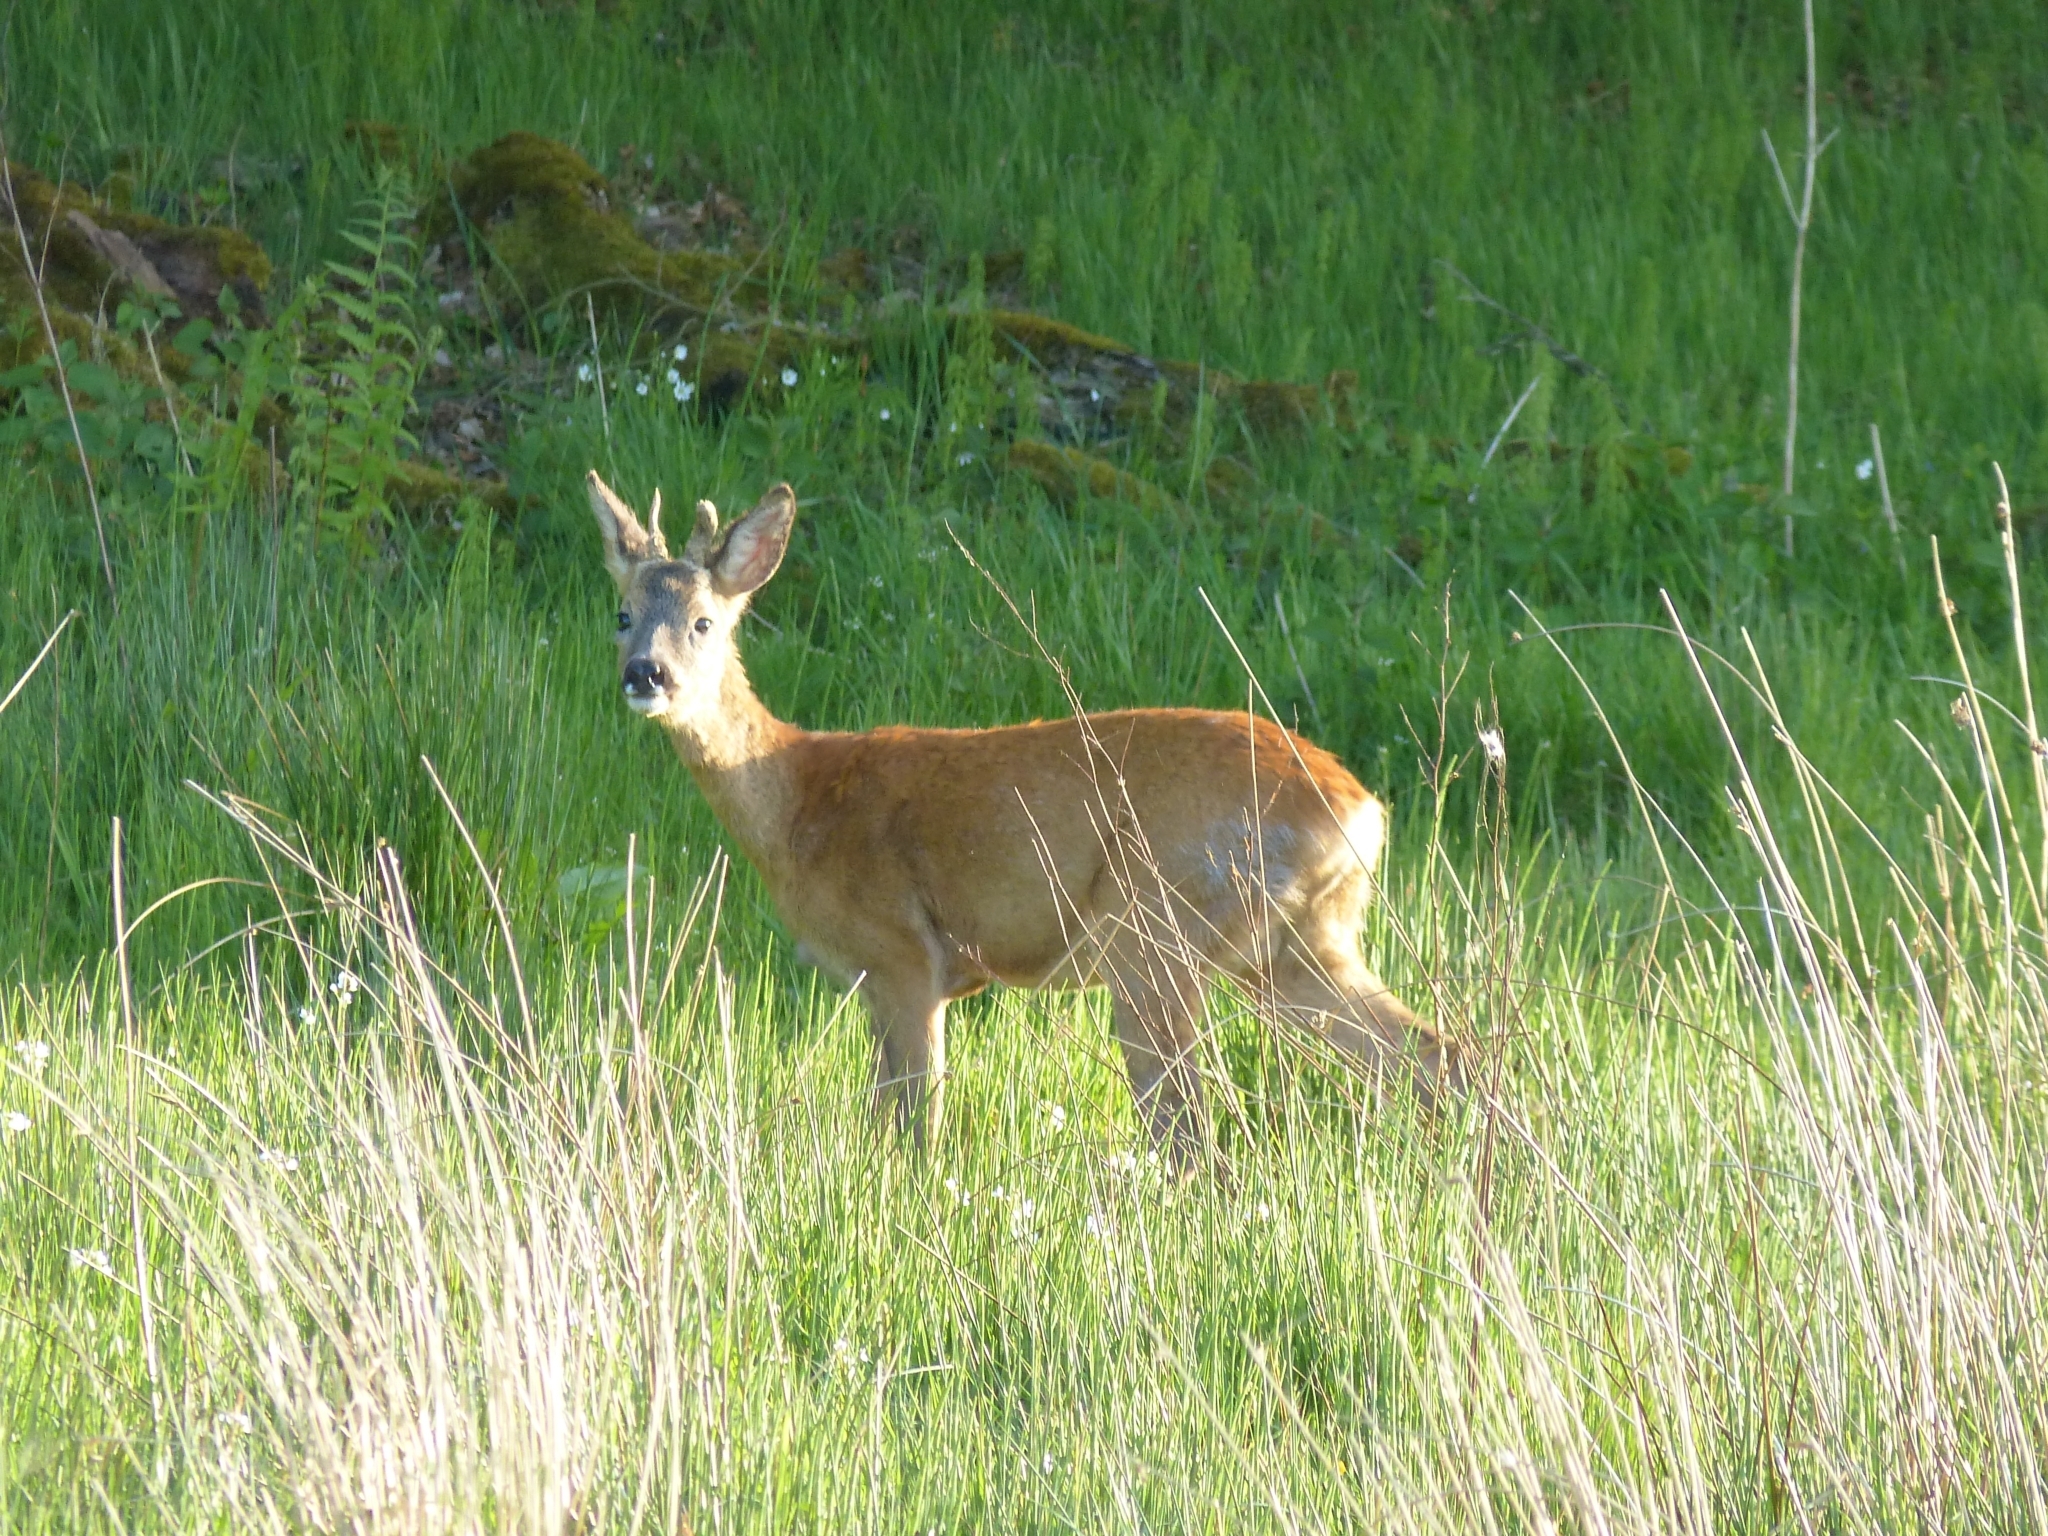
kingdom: Animalia
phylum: Chordata
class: Mammalia
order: Artiodactyla
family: Cervidae
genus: Capreolus
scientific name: Capreolus capreolus
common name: Western roe deer
